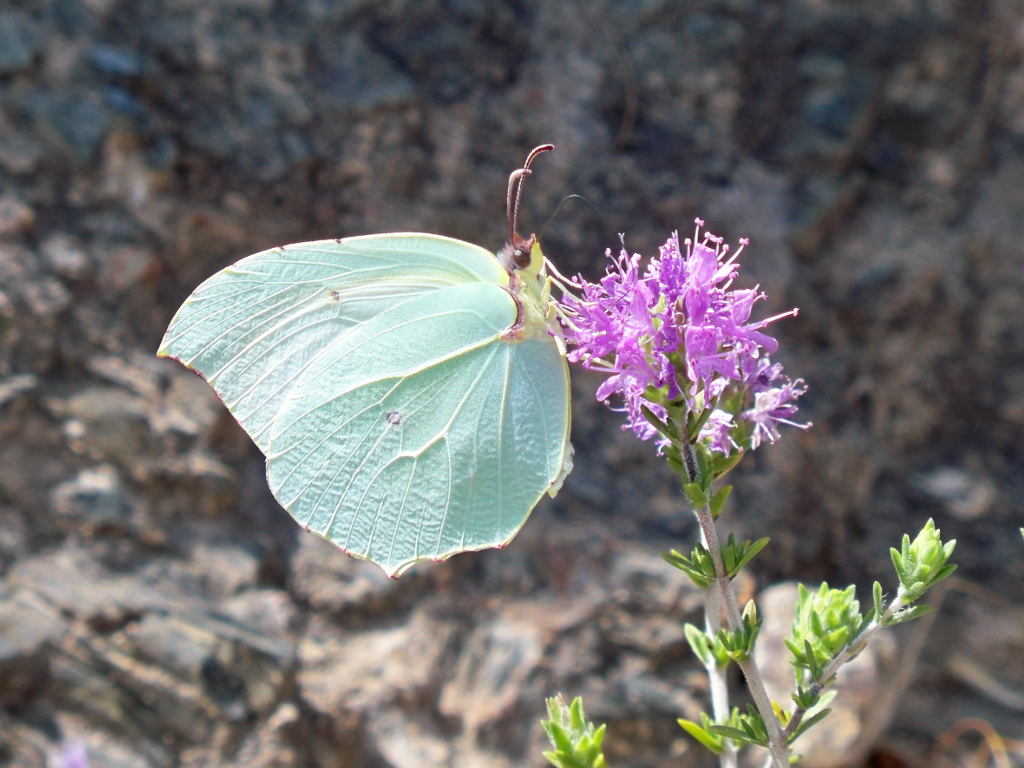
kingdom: Animalia
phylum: Arthropoda
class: Insecta
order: Lepidoptera
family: Pieridae
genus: Gonepteryx
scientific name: Gonepteryx cleopatra
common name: Cleopatra
